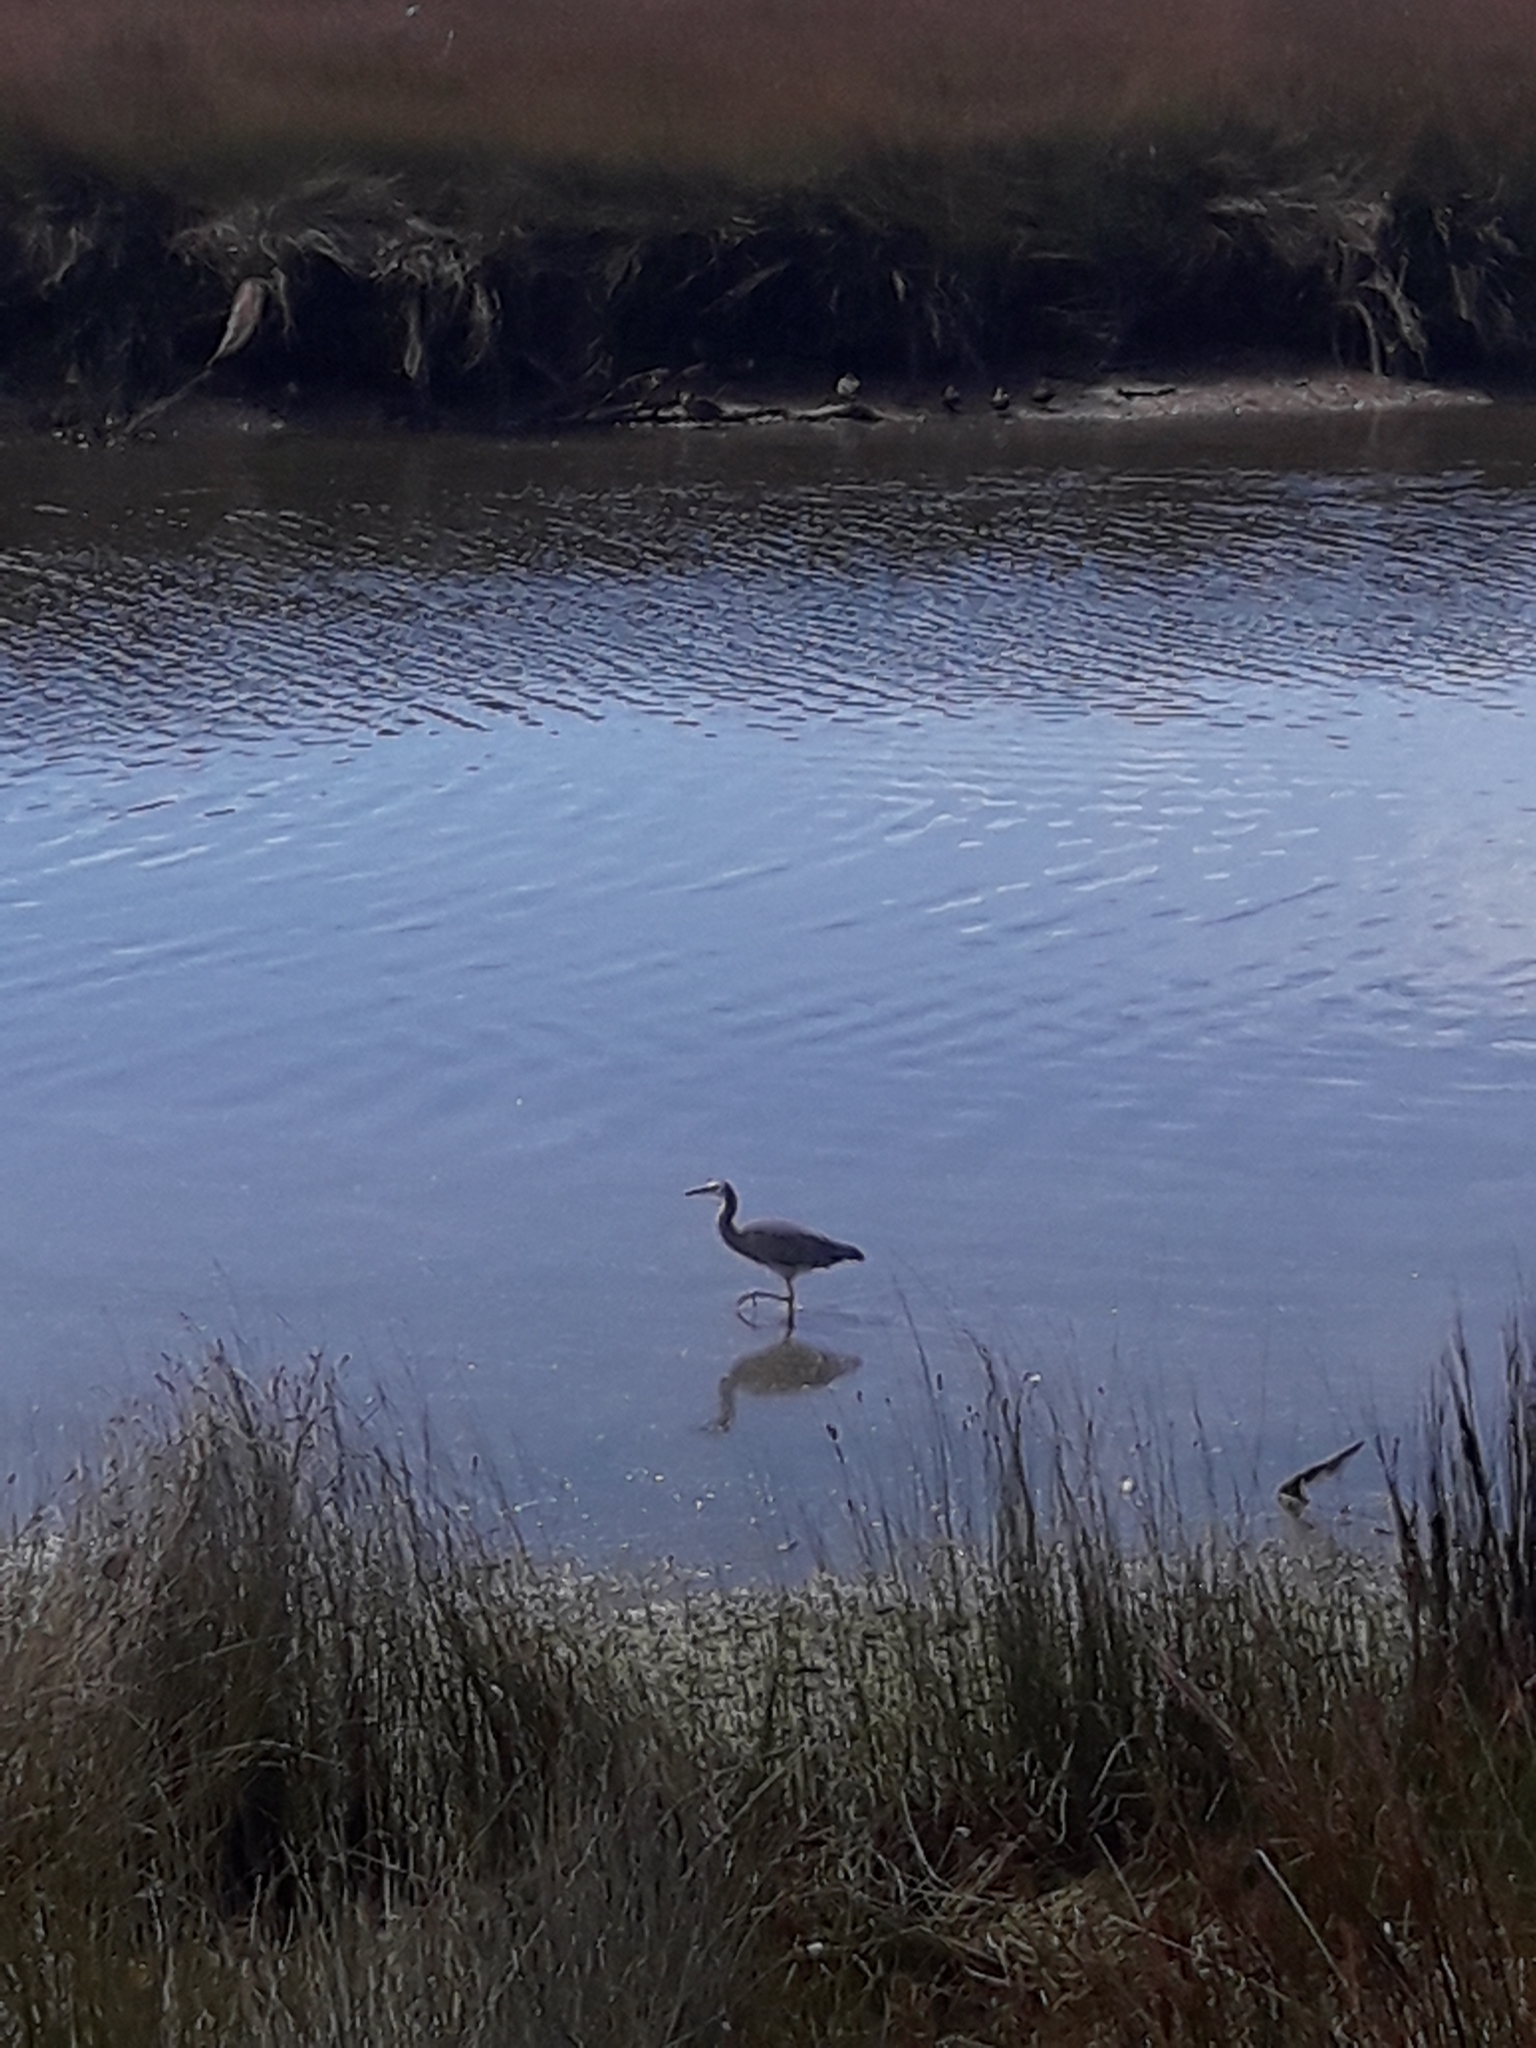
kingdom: Animalia
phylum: Chordata
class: Aves
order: Pelecaniformes
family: Ardeidae
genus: Egretta
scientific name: Egretta novaehollandiae
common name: White-faced heron
